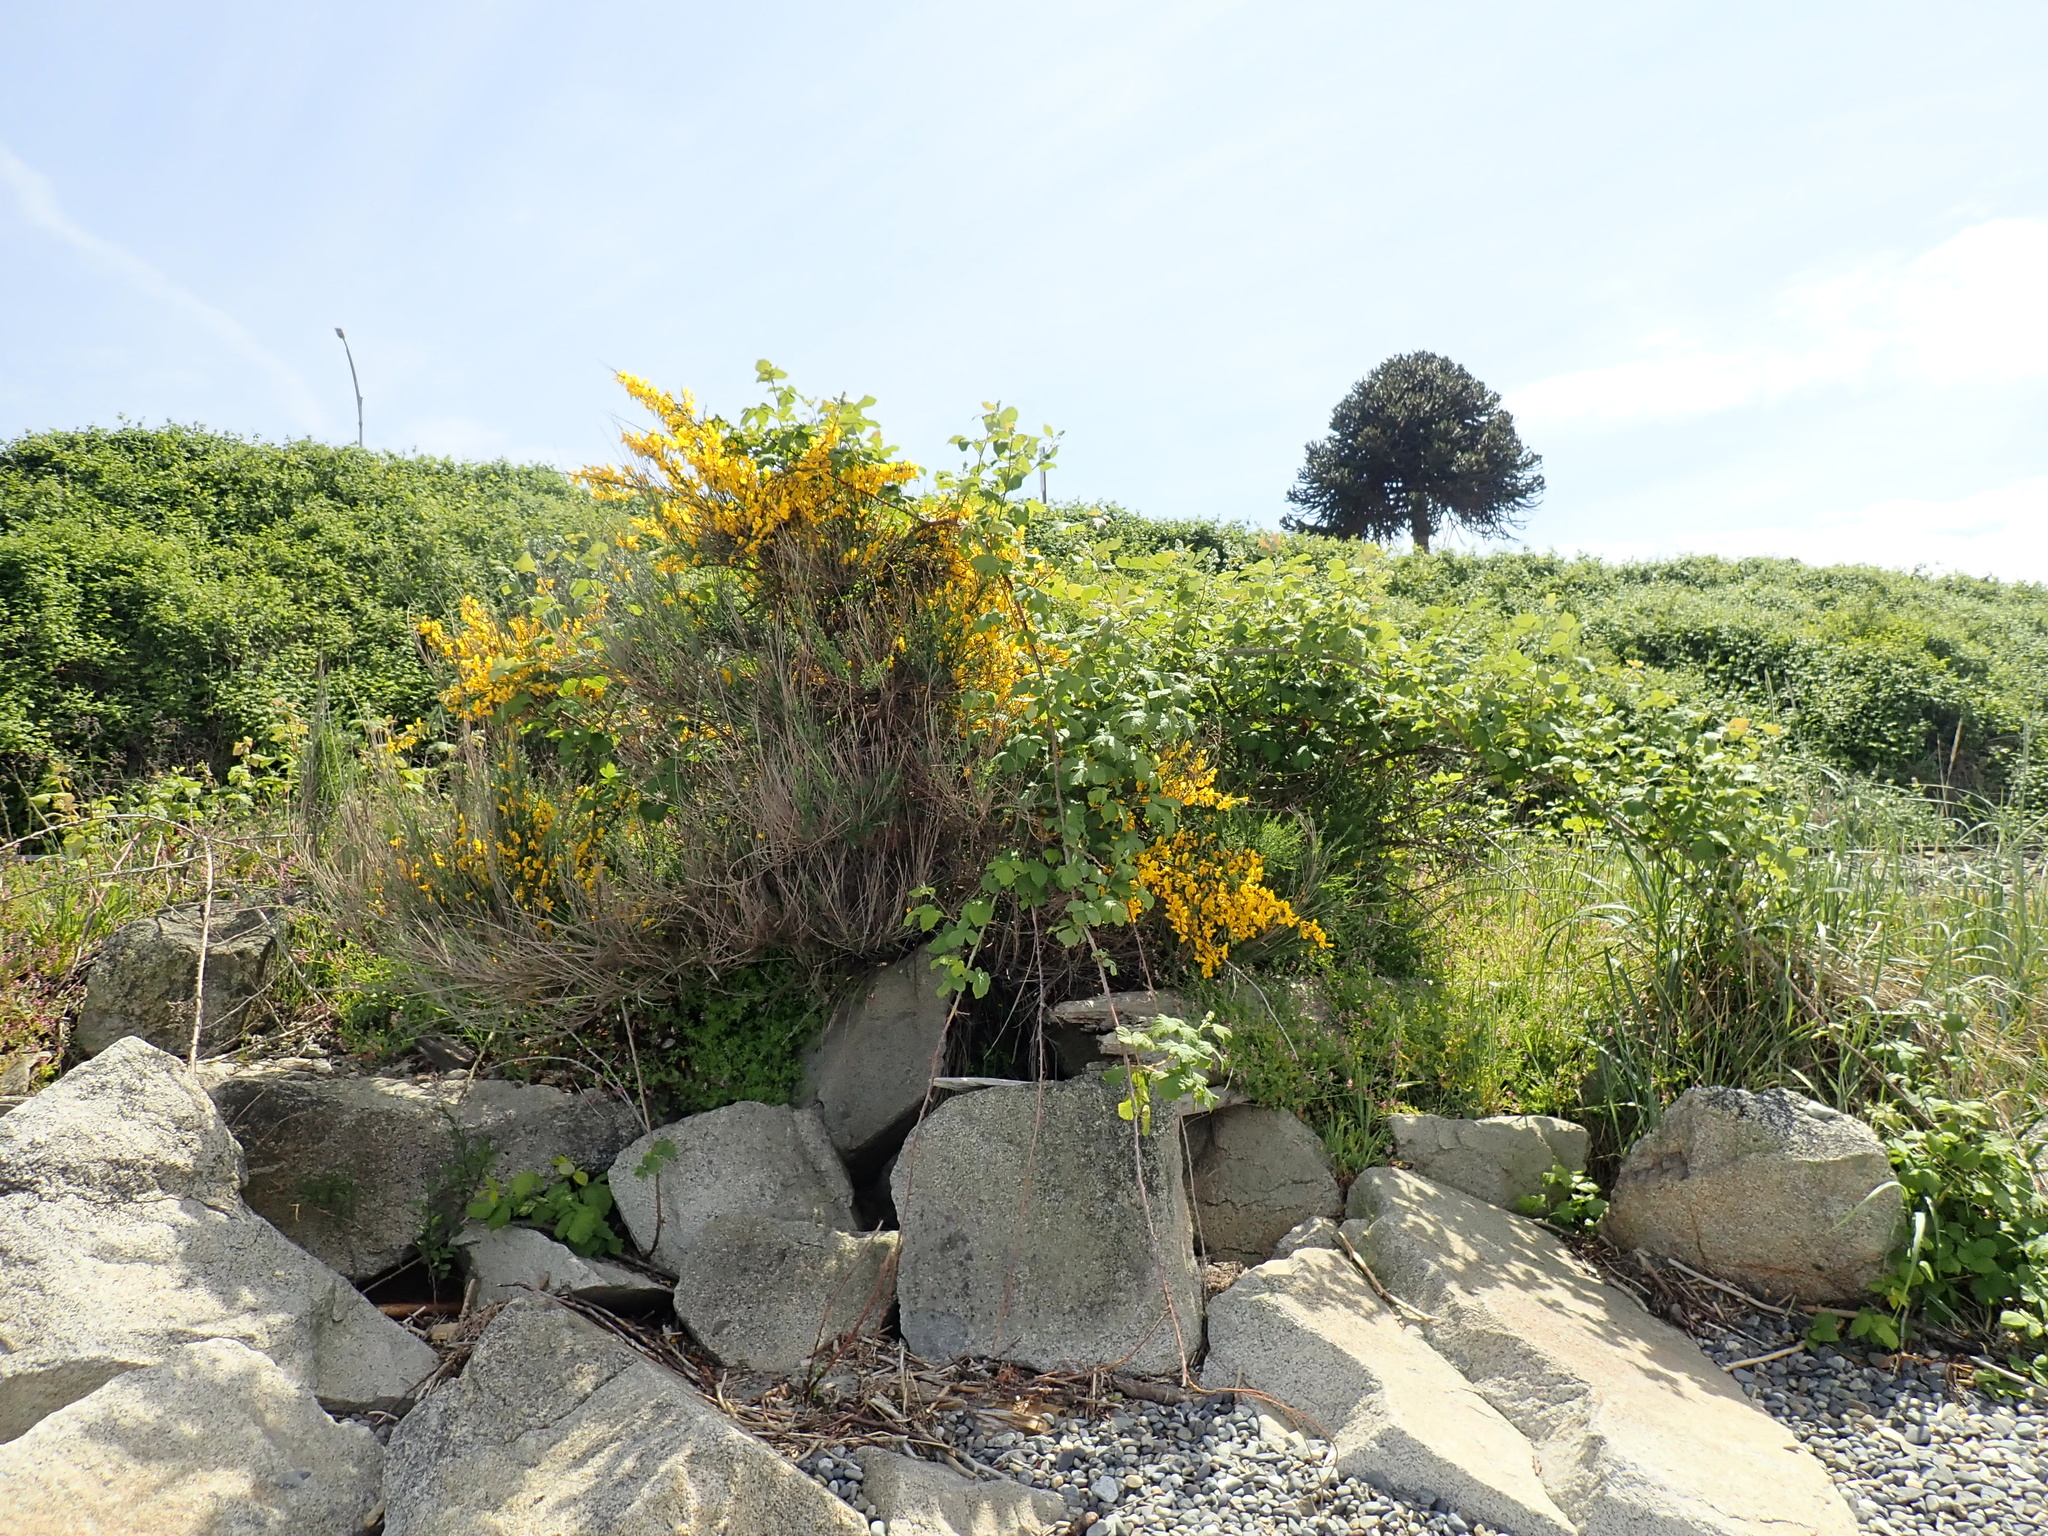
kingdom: Plantae
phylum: Tracheophyta
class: Magnoliopsida
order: Fabales
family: Fabaceae
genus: Cytisus
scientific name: Cytisus scoparius
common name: Scotch broom
